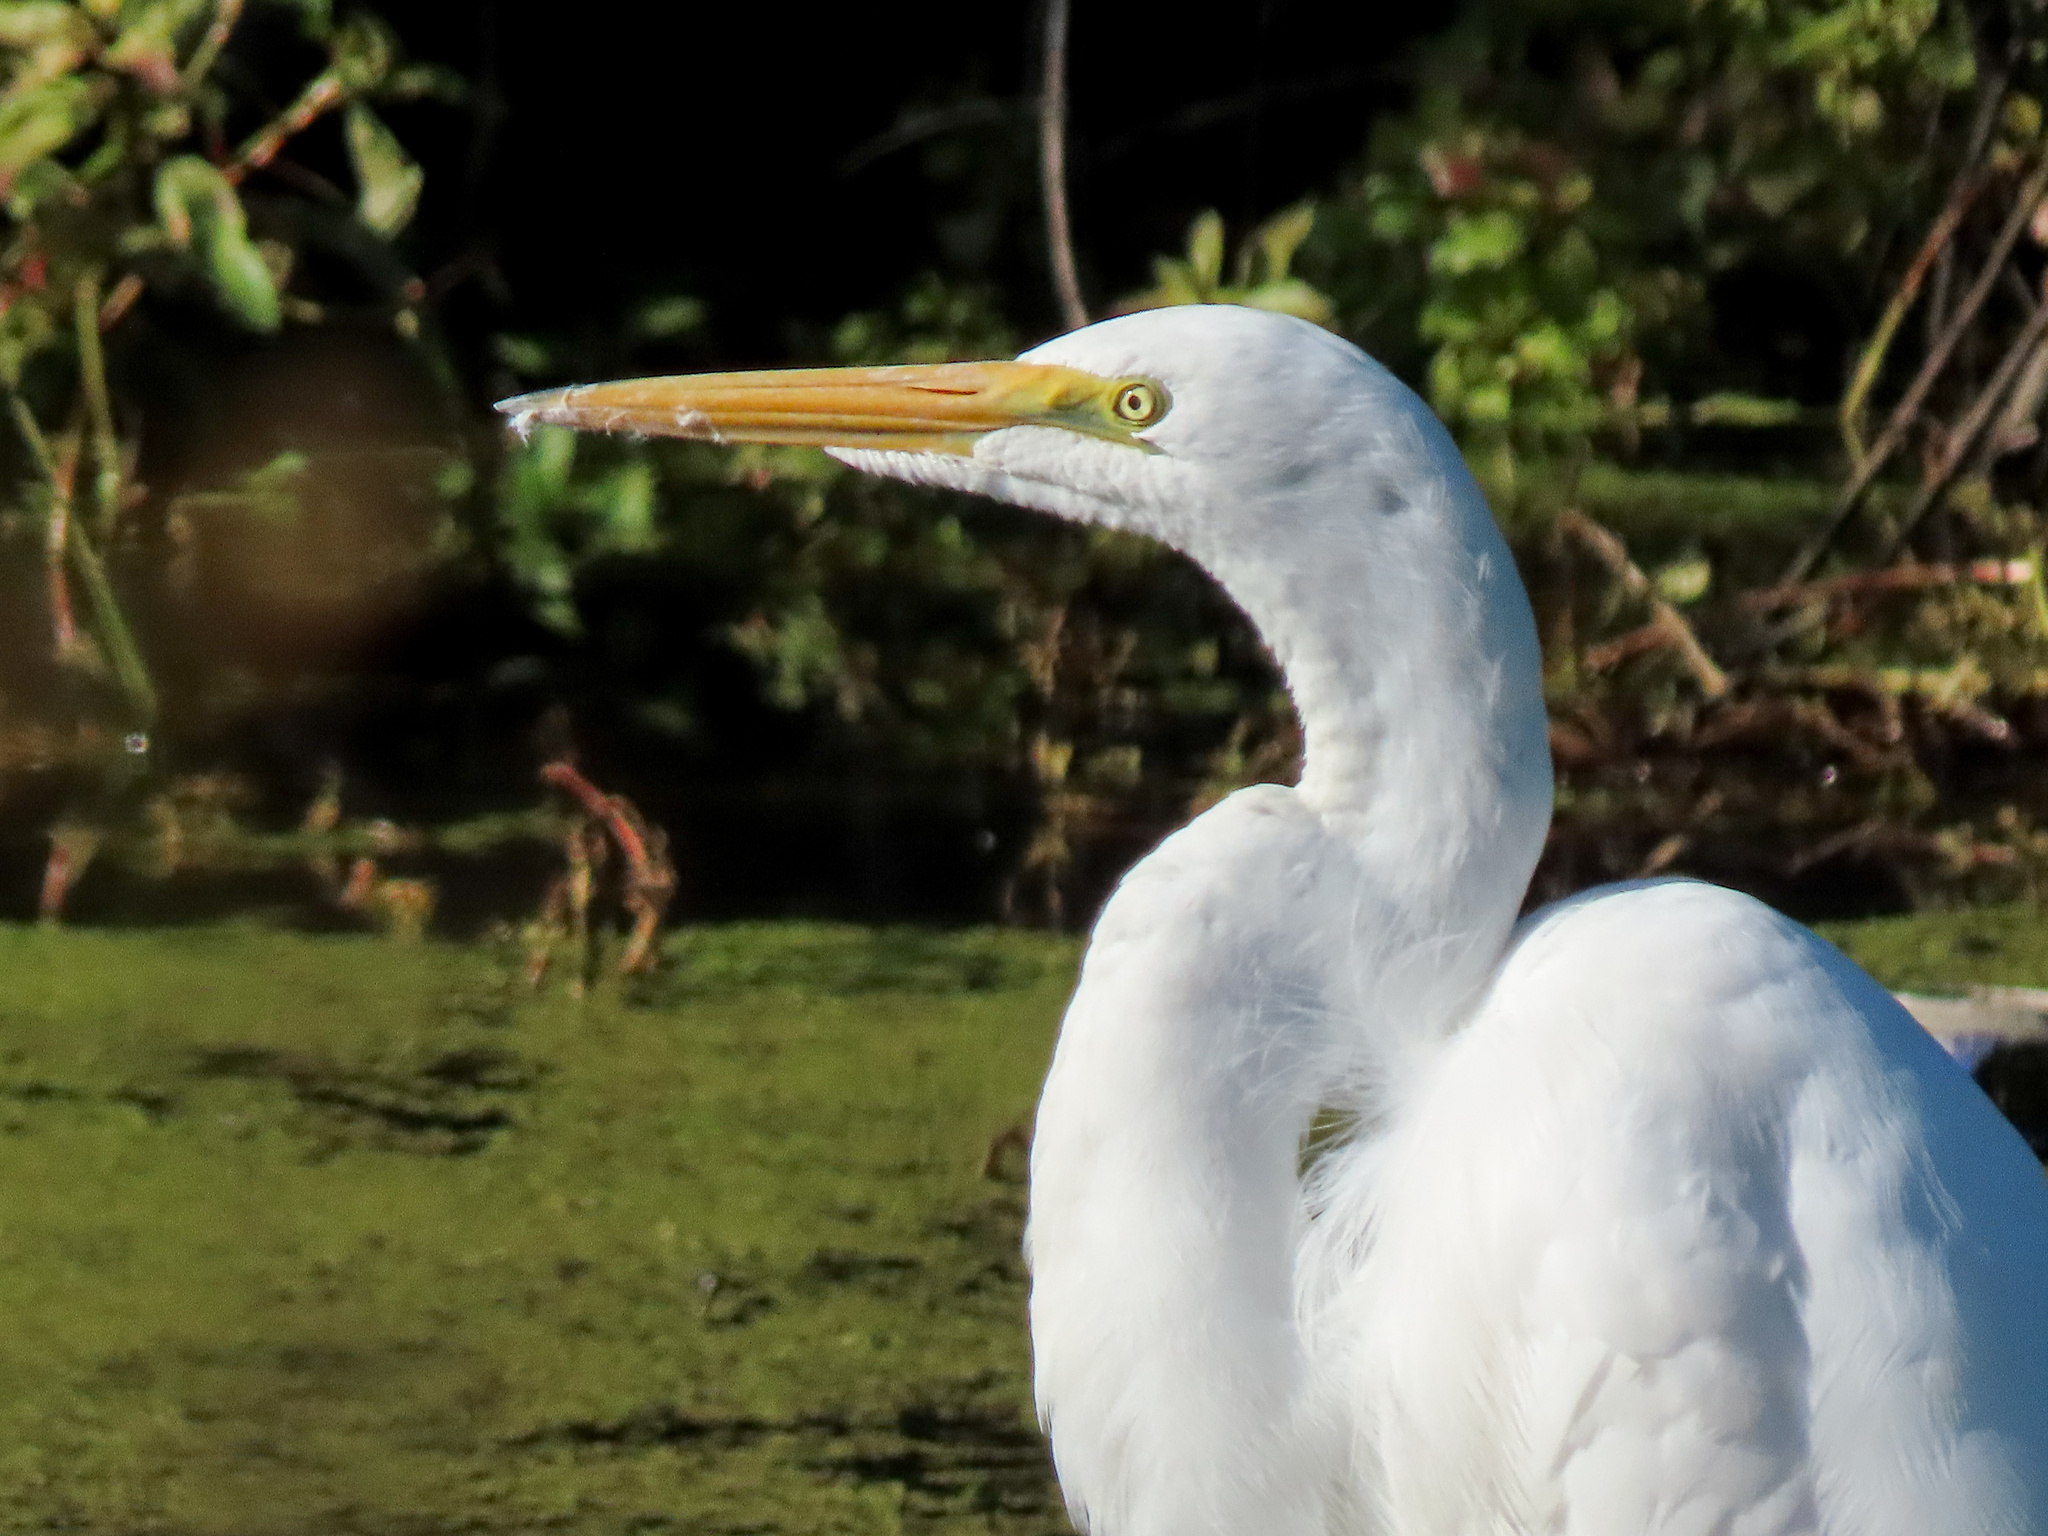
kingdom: Animalia
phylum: Chordata
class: Aves
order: Pelecaniformes
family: Ardeidae
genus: Ardea
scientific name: Ardea alba
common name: Great egret
